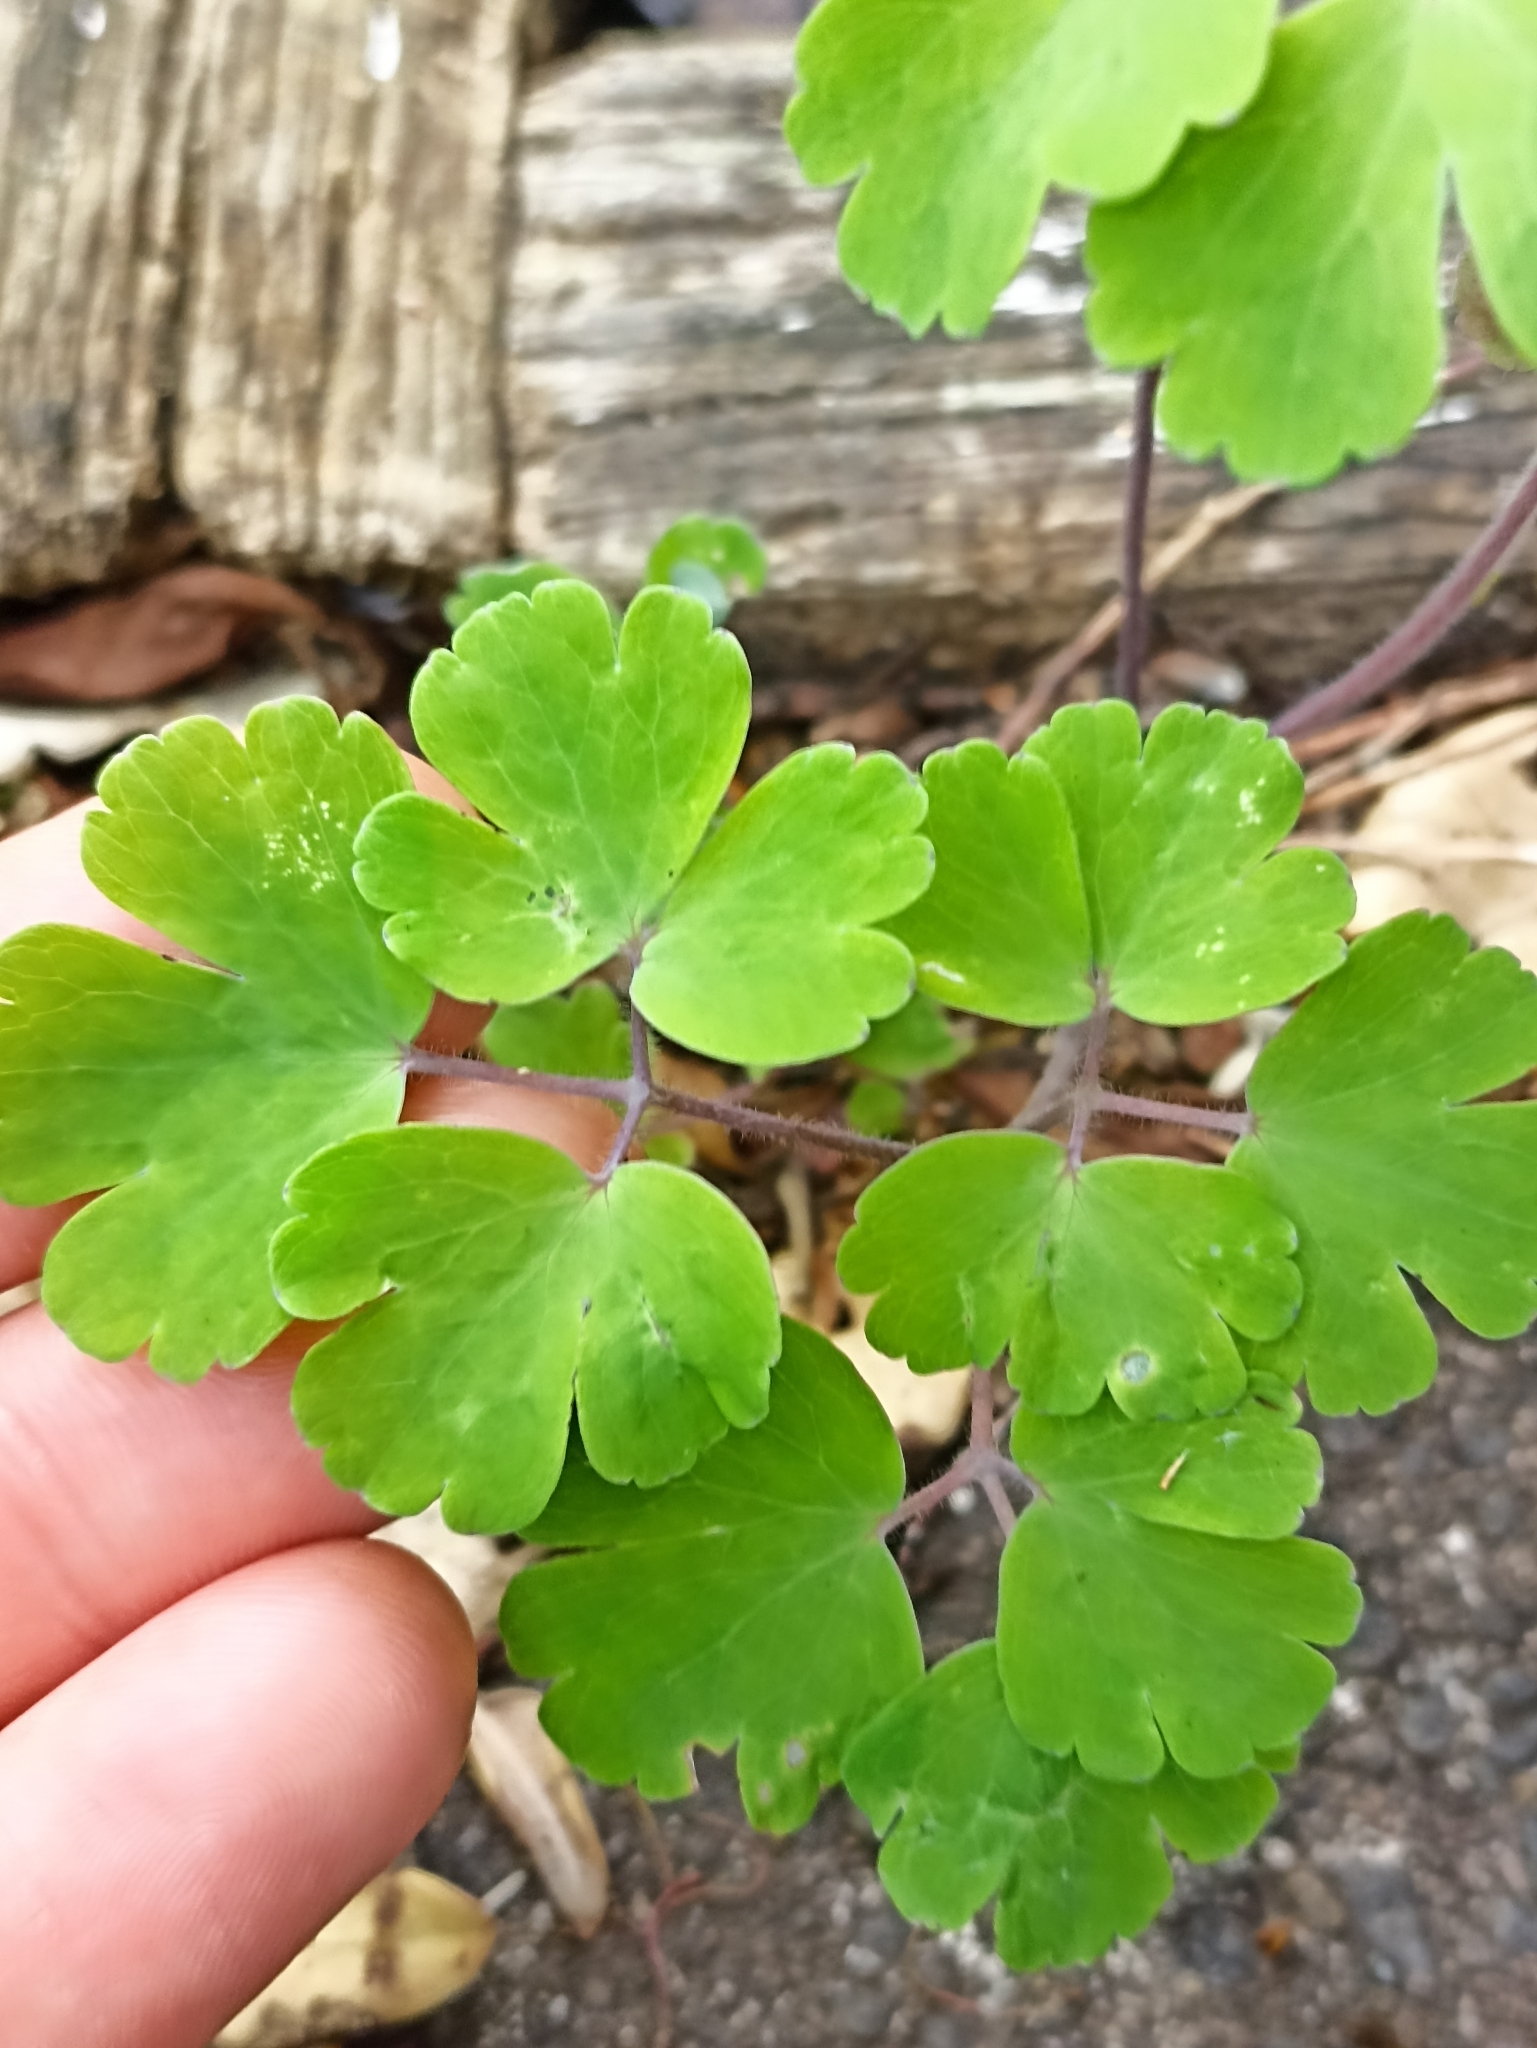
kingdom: Plantae
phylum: Tracheophyta
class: Magnoliopsida
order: Ranunculales
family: Ranunculaceae
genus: Aquilegia
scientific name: Aquilegia vulgaris
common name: Columbine
